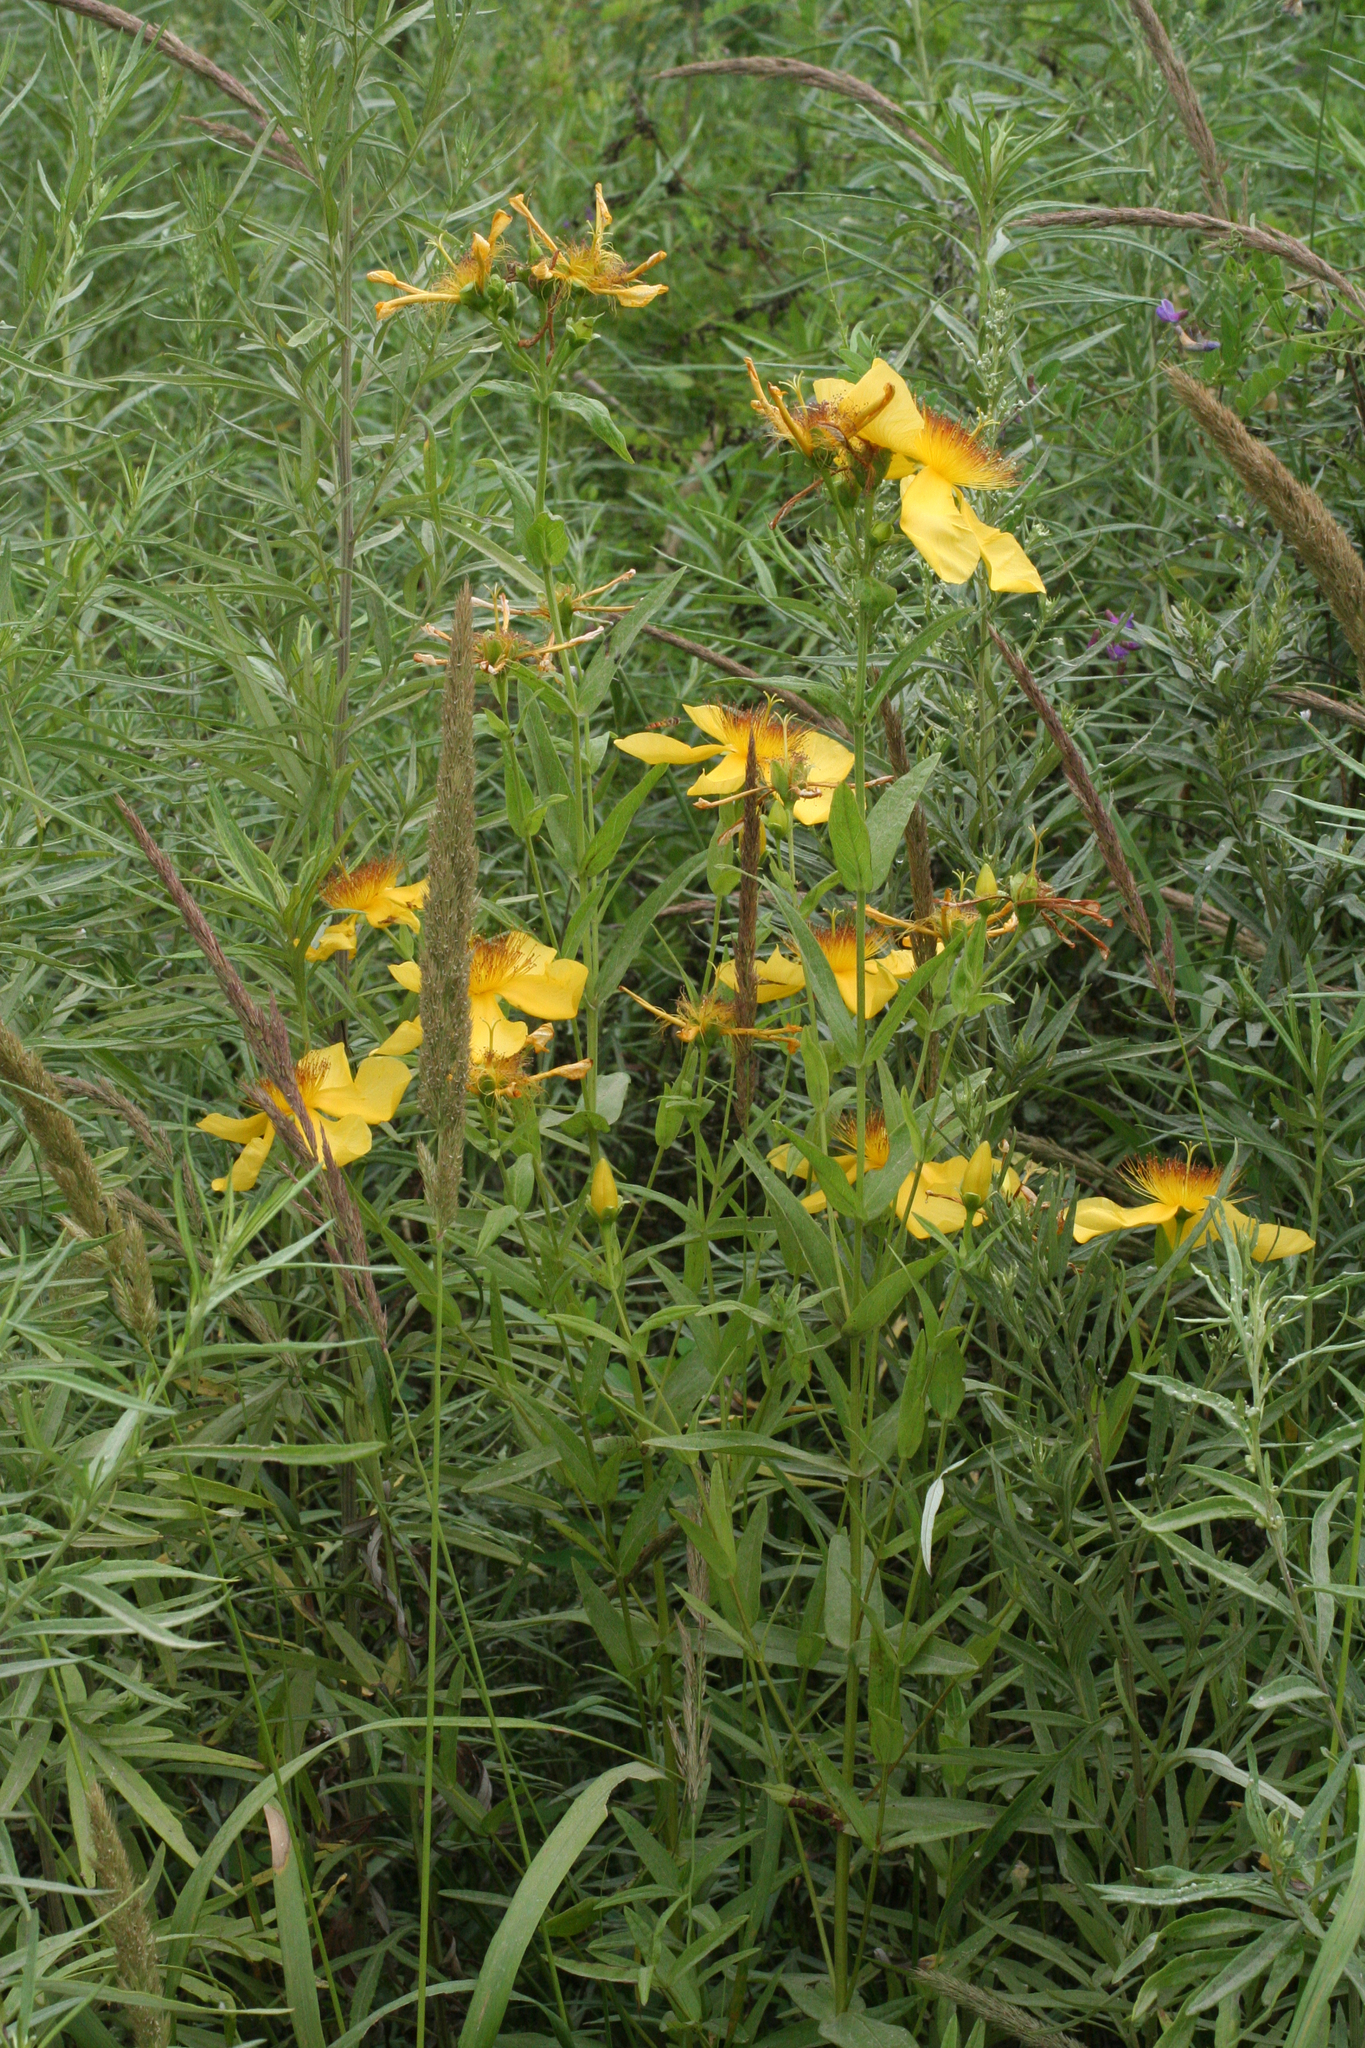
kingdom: Plantae
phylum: Tracheophyta
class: Magnoliopsida
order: Malpighiales
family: Hypericaceae
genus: Hypericum
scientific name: Hypericum ascyron
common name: Giant st. john's-wort
